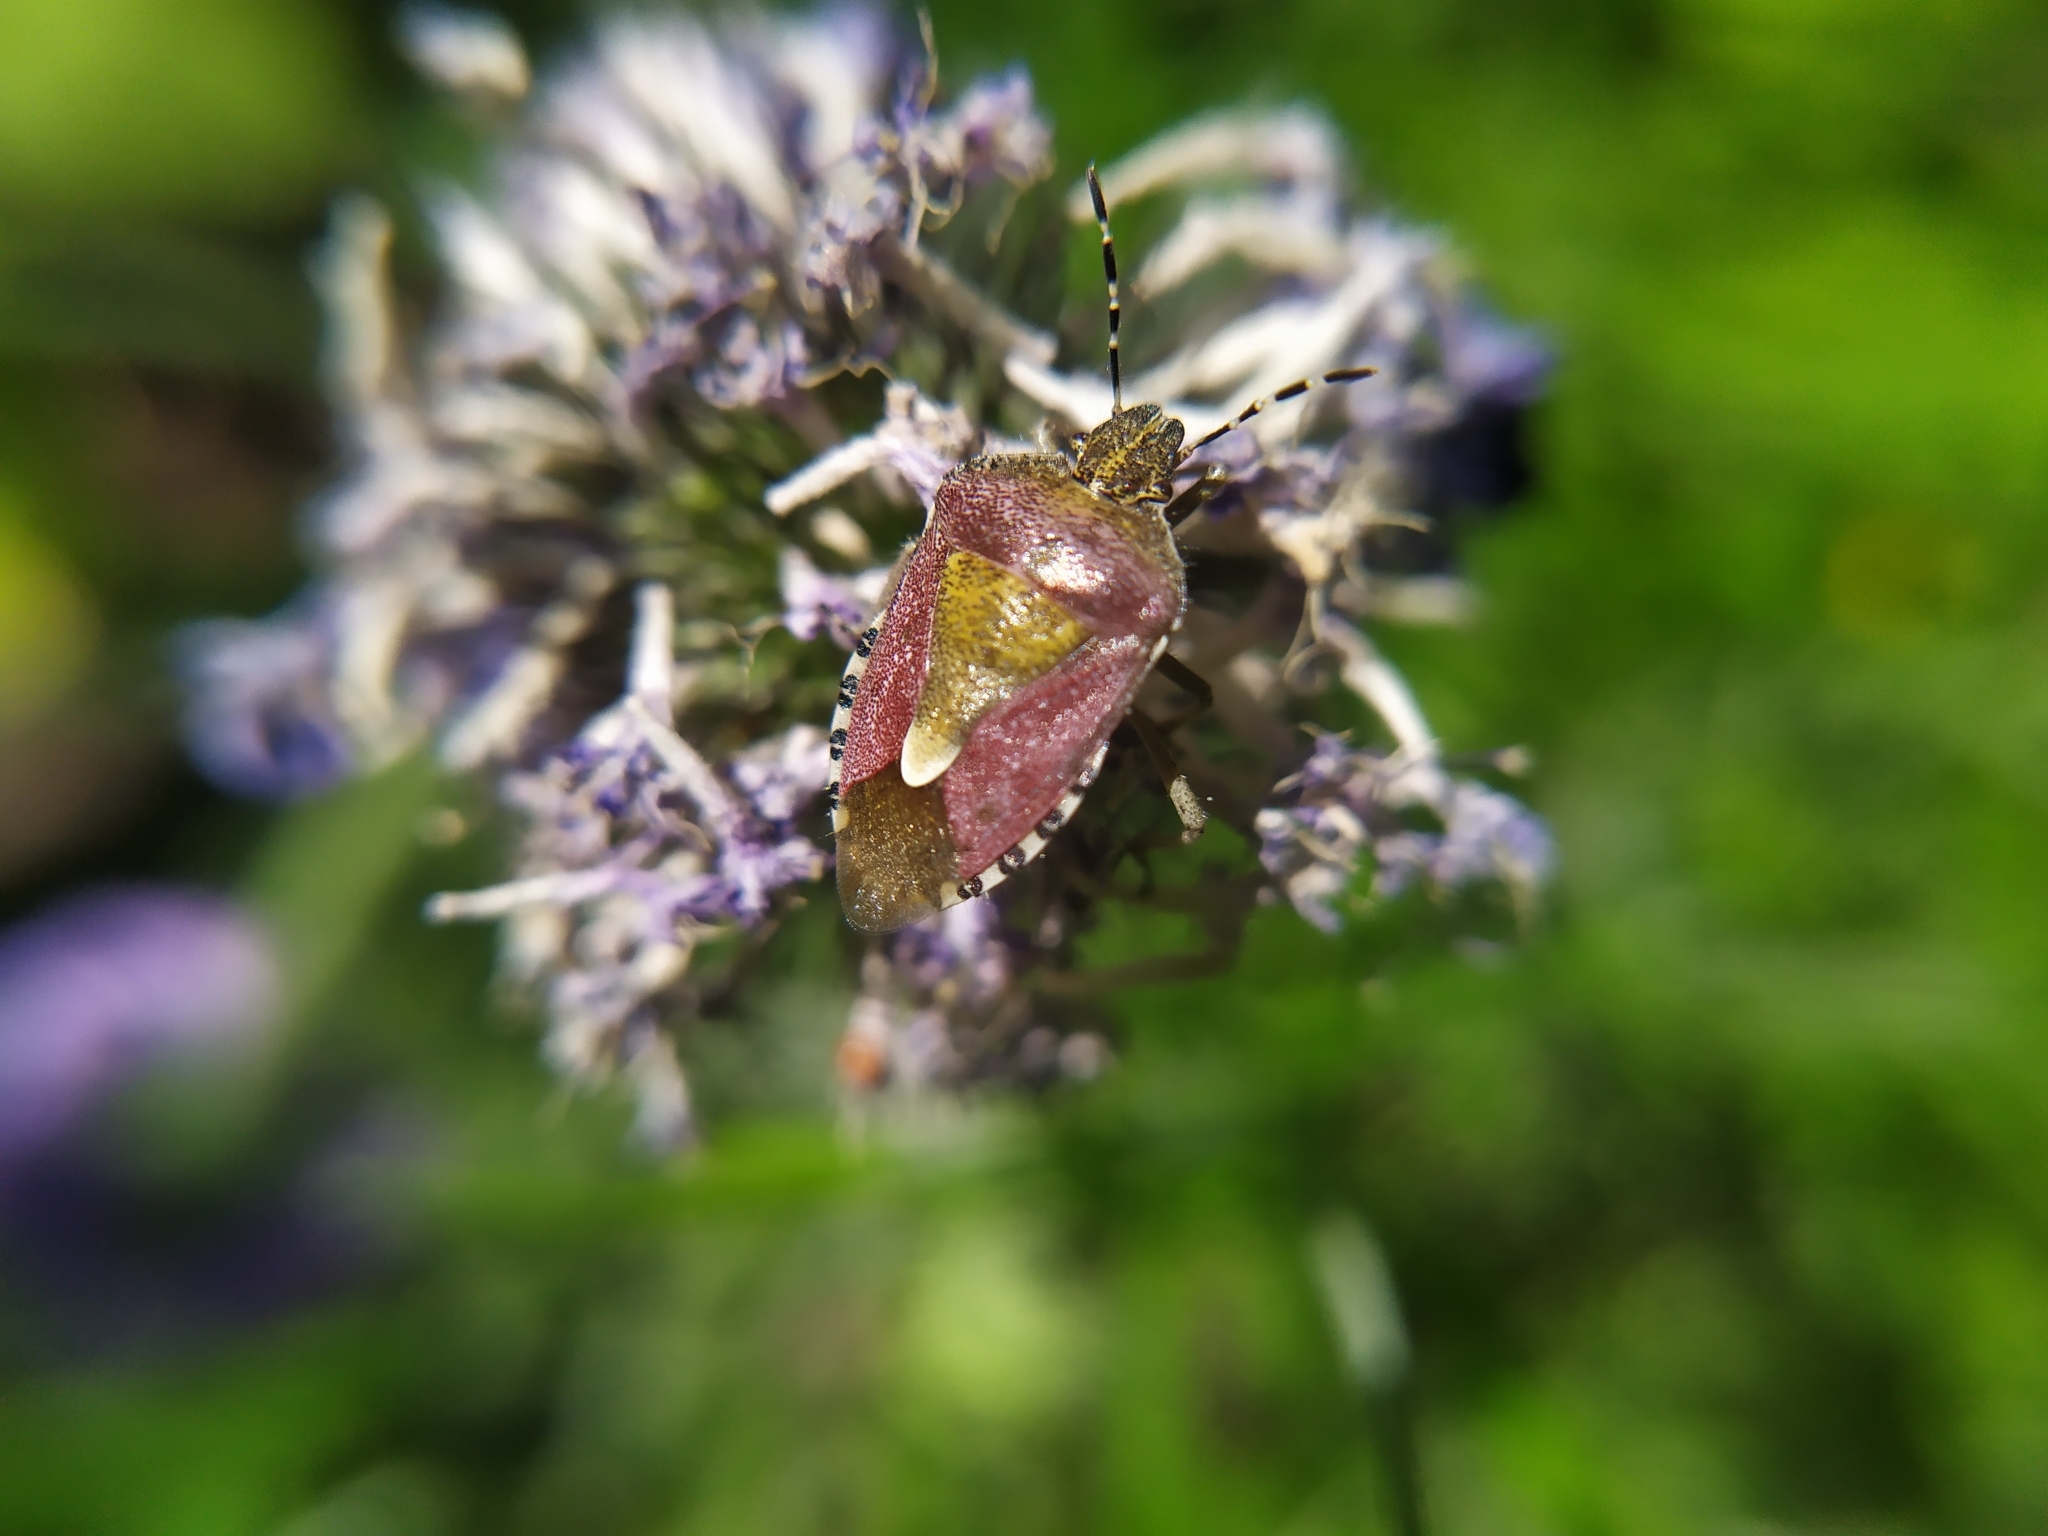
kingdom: Animalia
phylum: Arthropoda
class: Insecta
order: Hemiptera
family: Pentatomidae
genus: Dolycoris
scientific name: Dolycoris baccarum
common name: Sloe bug
